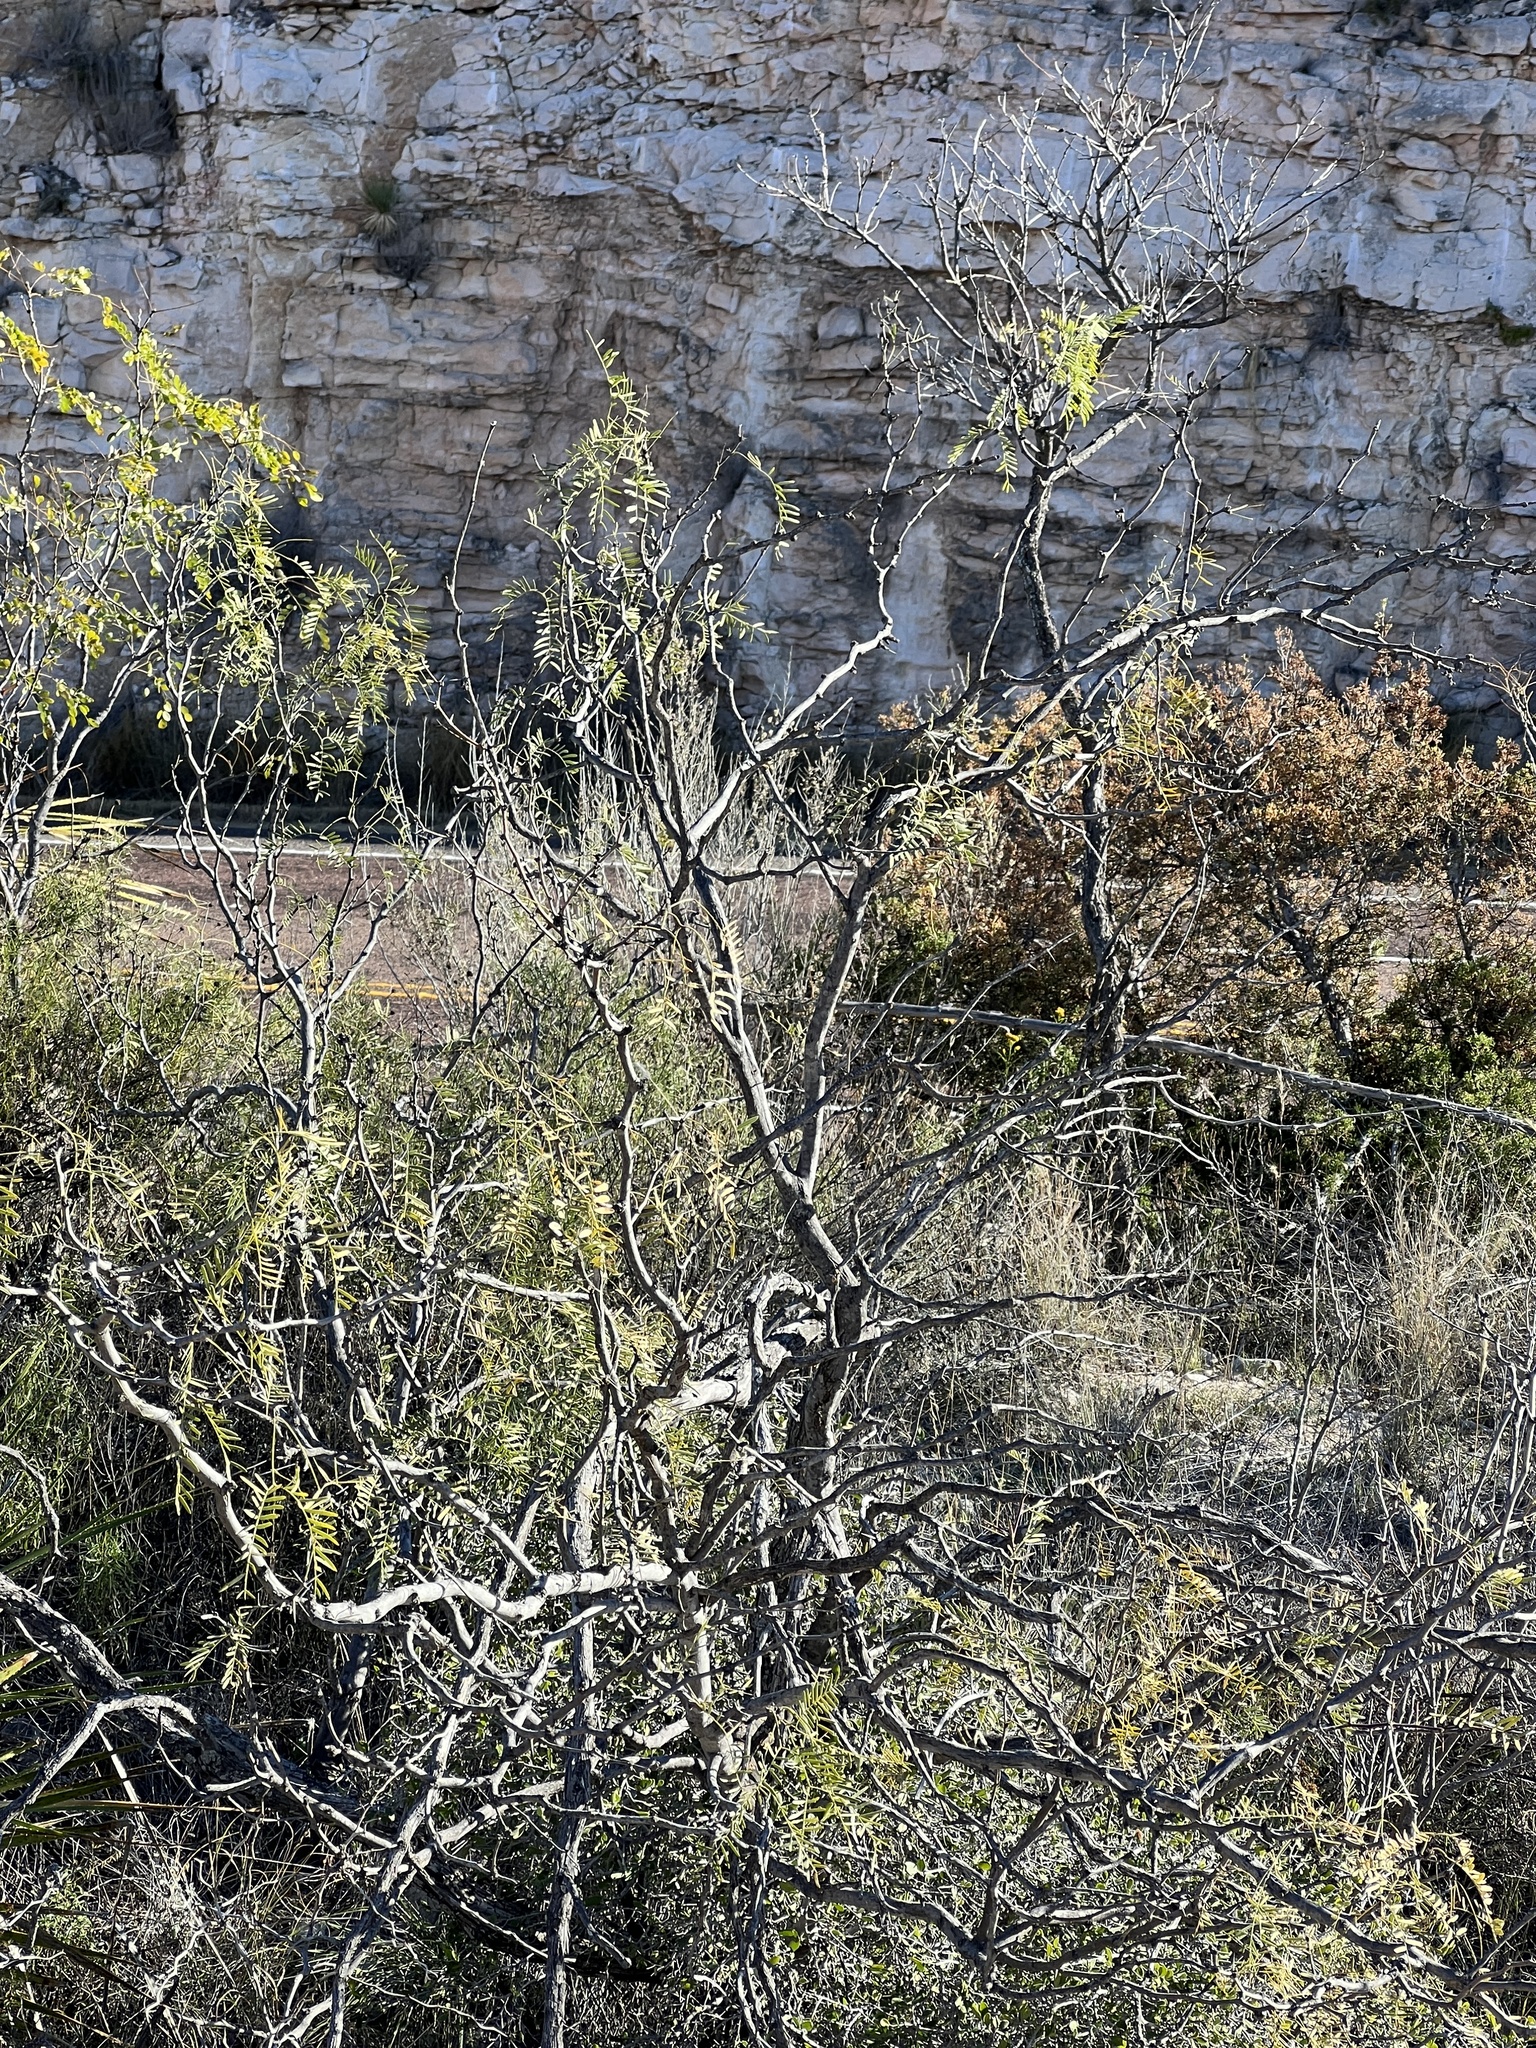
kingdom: Plantae
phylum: Tracheophyta
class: Magnoliopsida
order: Fabales
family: Fabaceae
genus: Prosopis
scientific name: Prosopis glandulosa
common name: Honey mesquite
